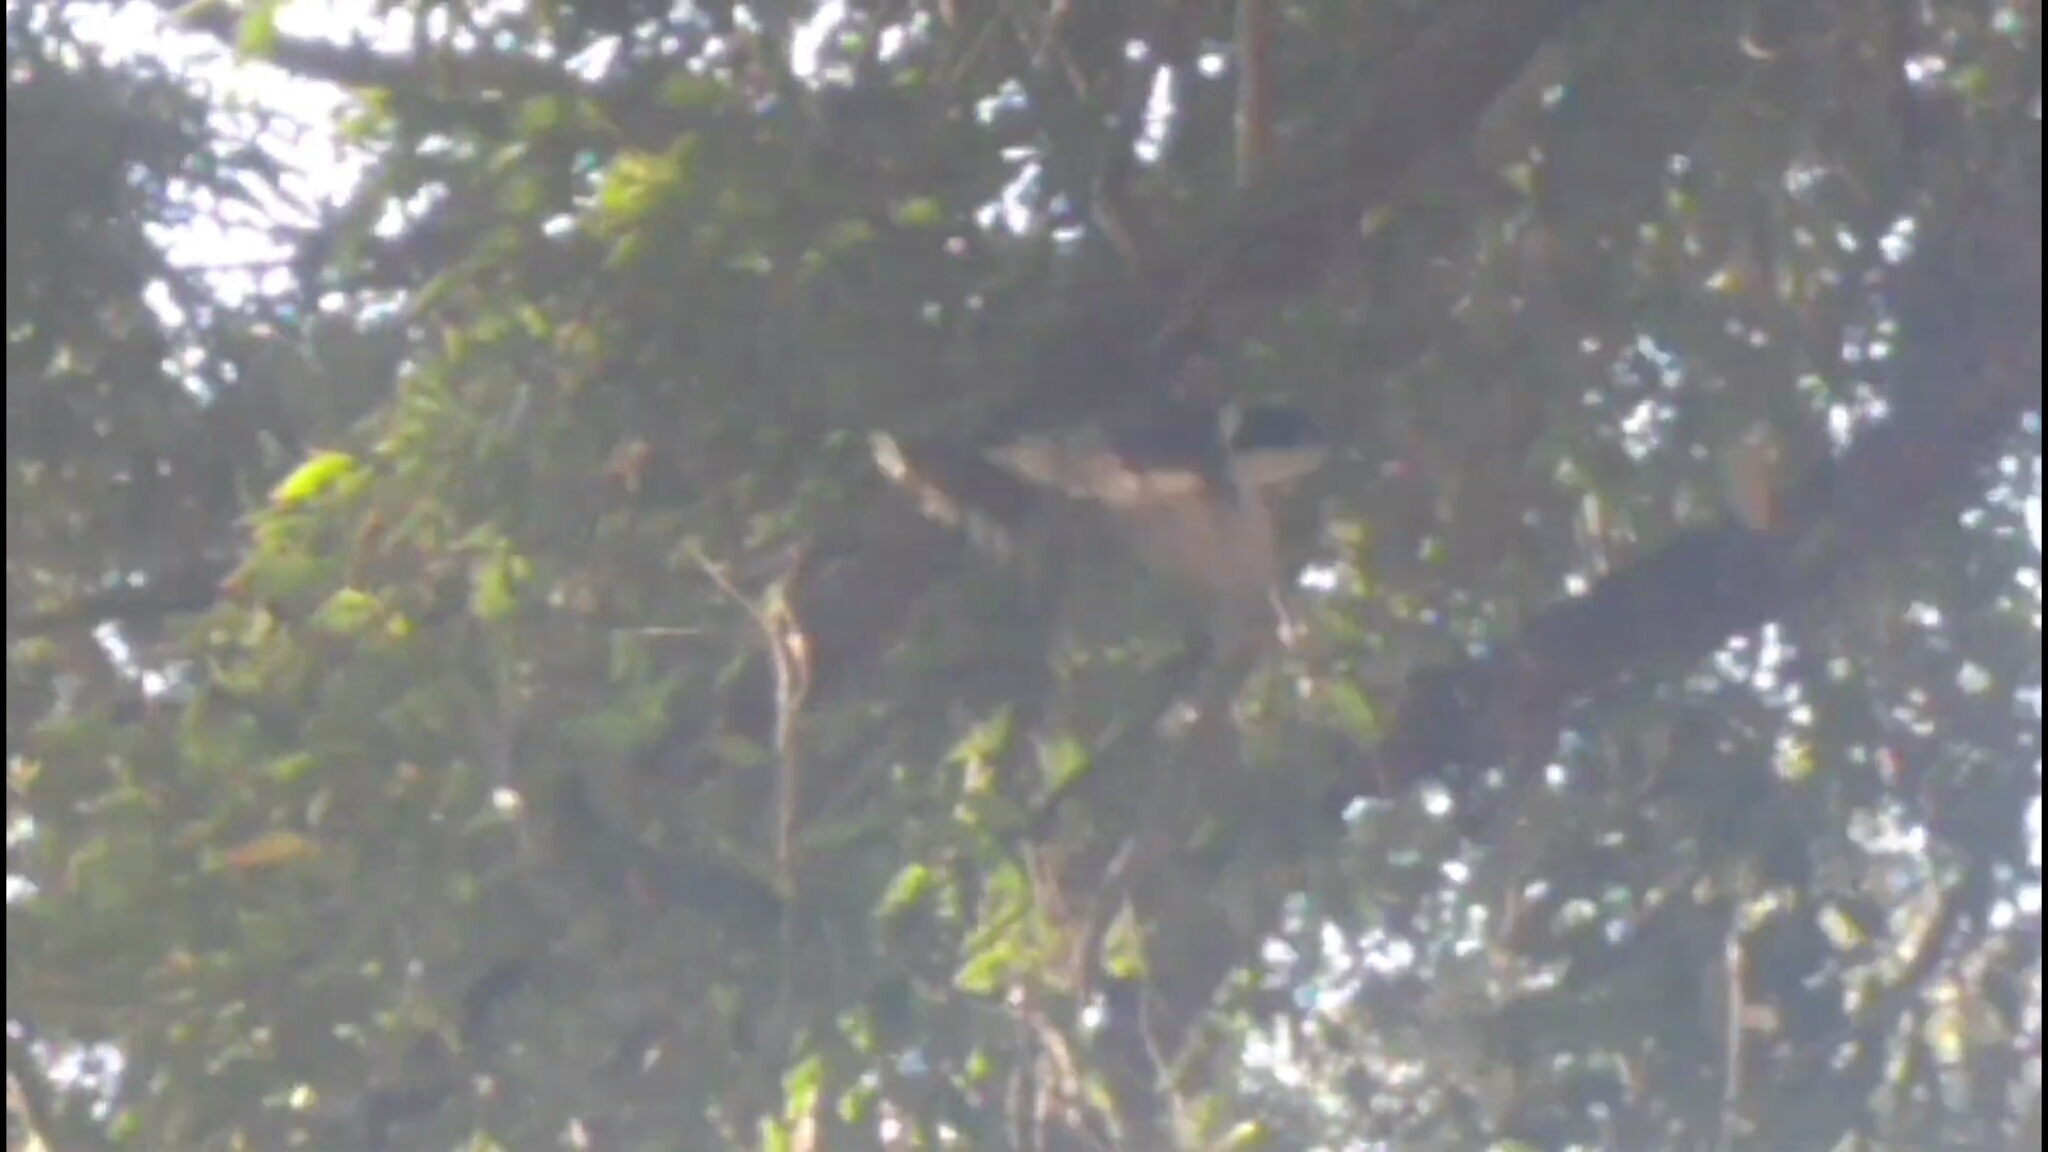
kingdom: Animalia
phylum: Chordata
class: Aves
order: Passeriformes
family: Cracticidae
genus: Cracticus
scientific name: Cracticus torquatus
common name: Grey butcherbird
